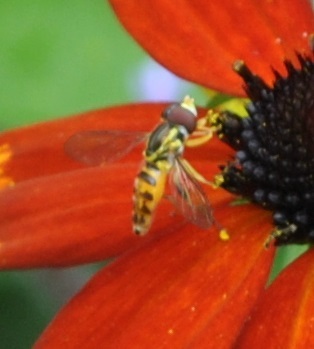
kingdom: Animalia
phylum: Arthropoda
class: Insecta
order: Diptera
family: Syrphidae
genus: Toxomerus
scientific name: Toxomerus geminatus
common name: Eastern calligrapher
